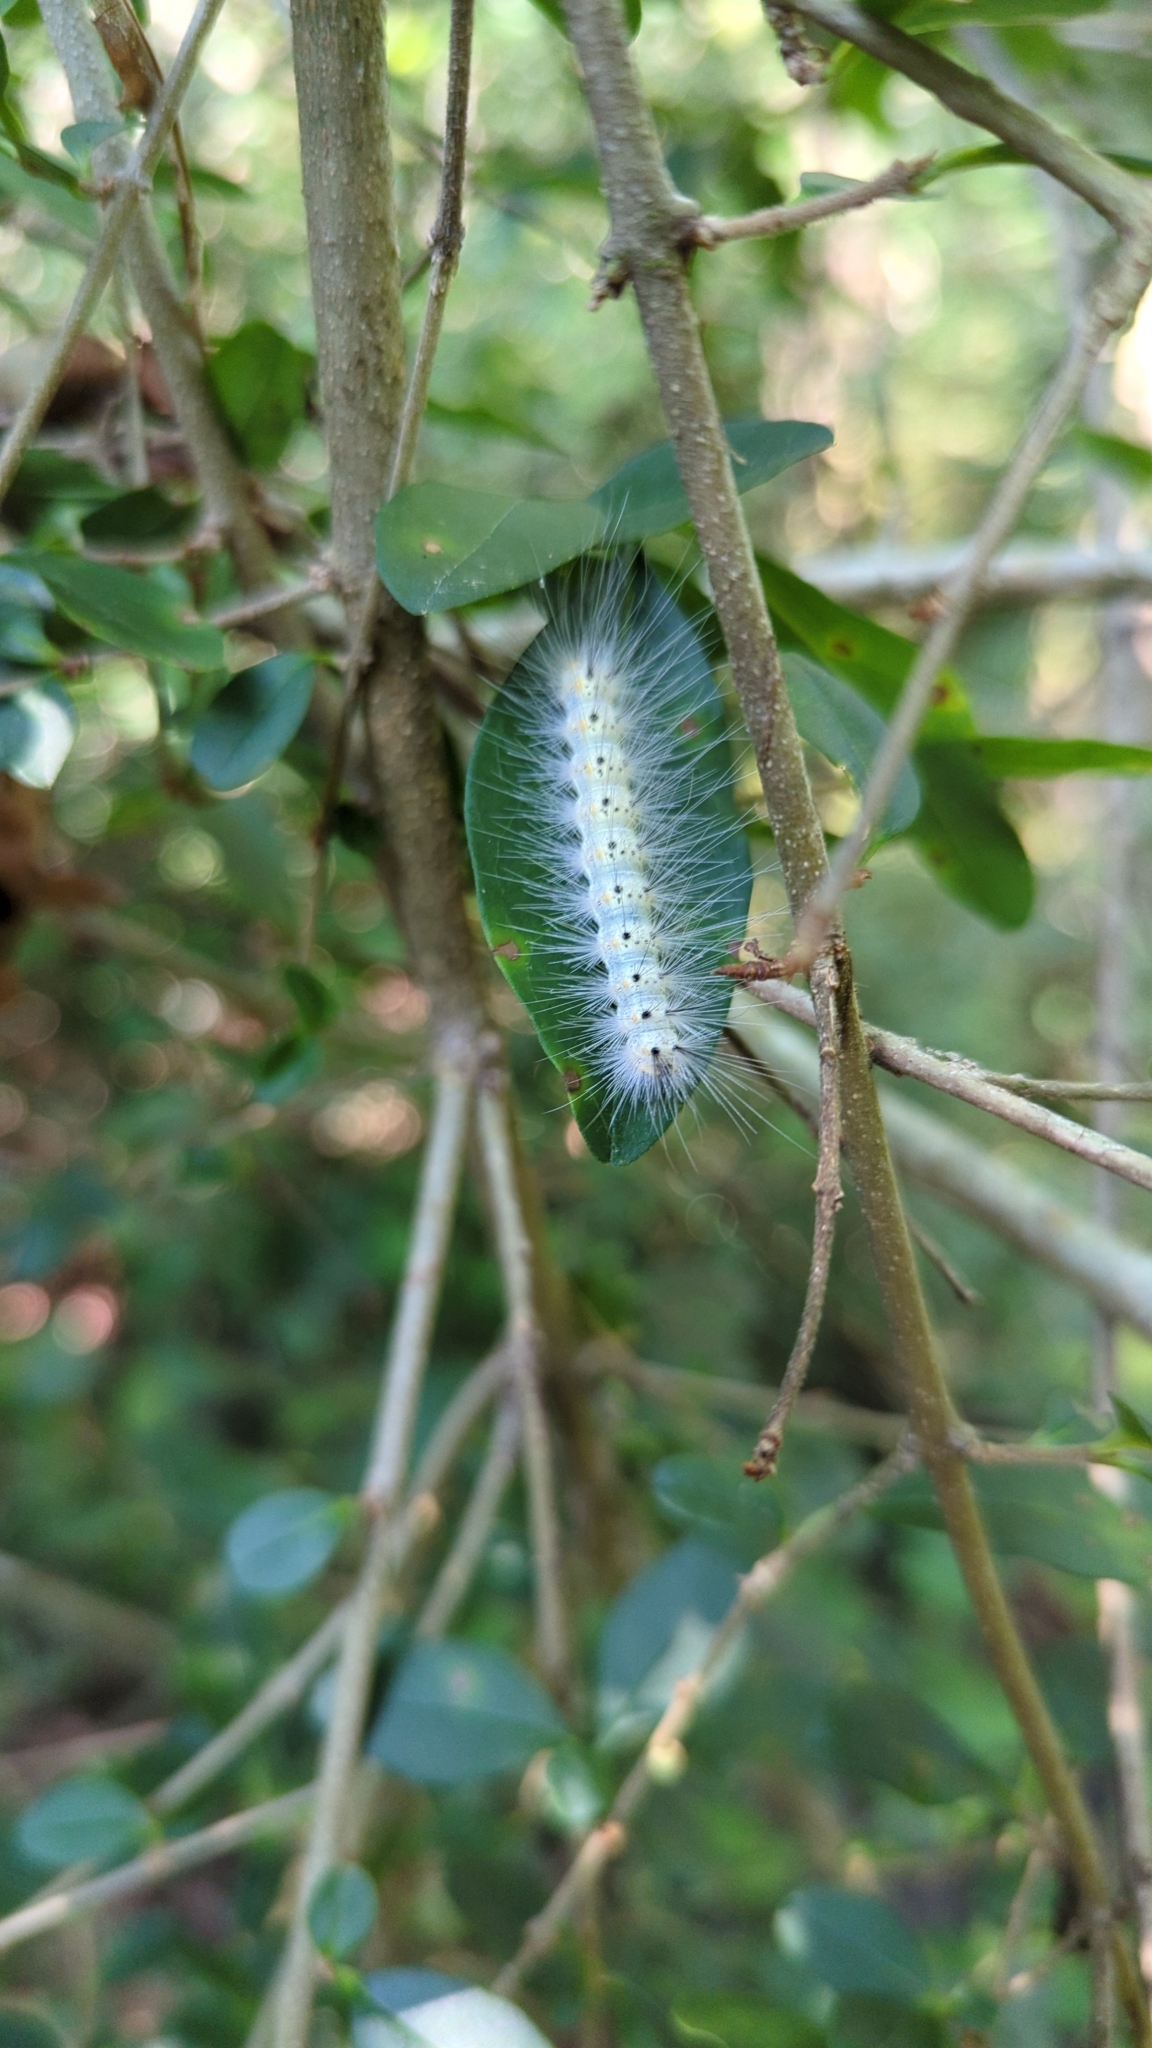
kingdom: Animalia
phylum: Arthropoda
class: Insecta
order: Lepidoptera
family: Erebidae
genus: Hyphantria
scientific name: Hyphantria cunea
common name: American white moth
